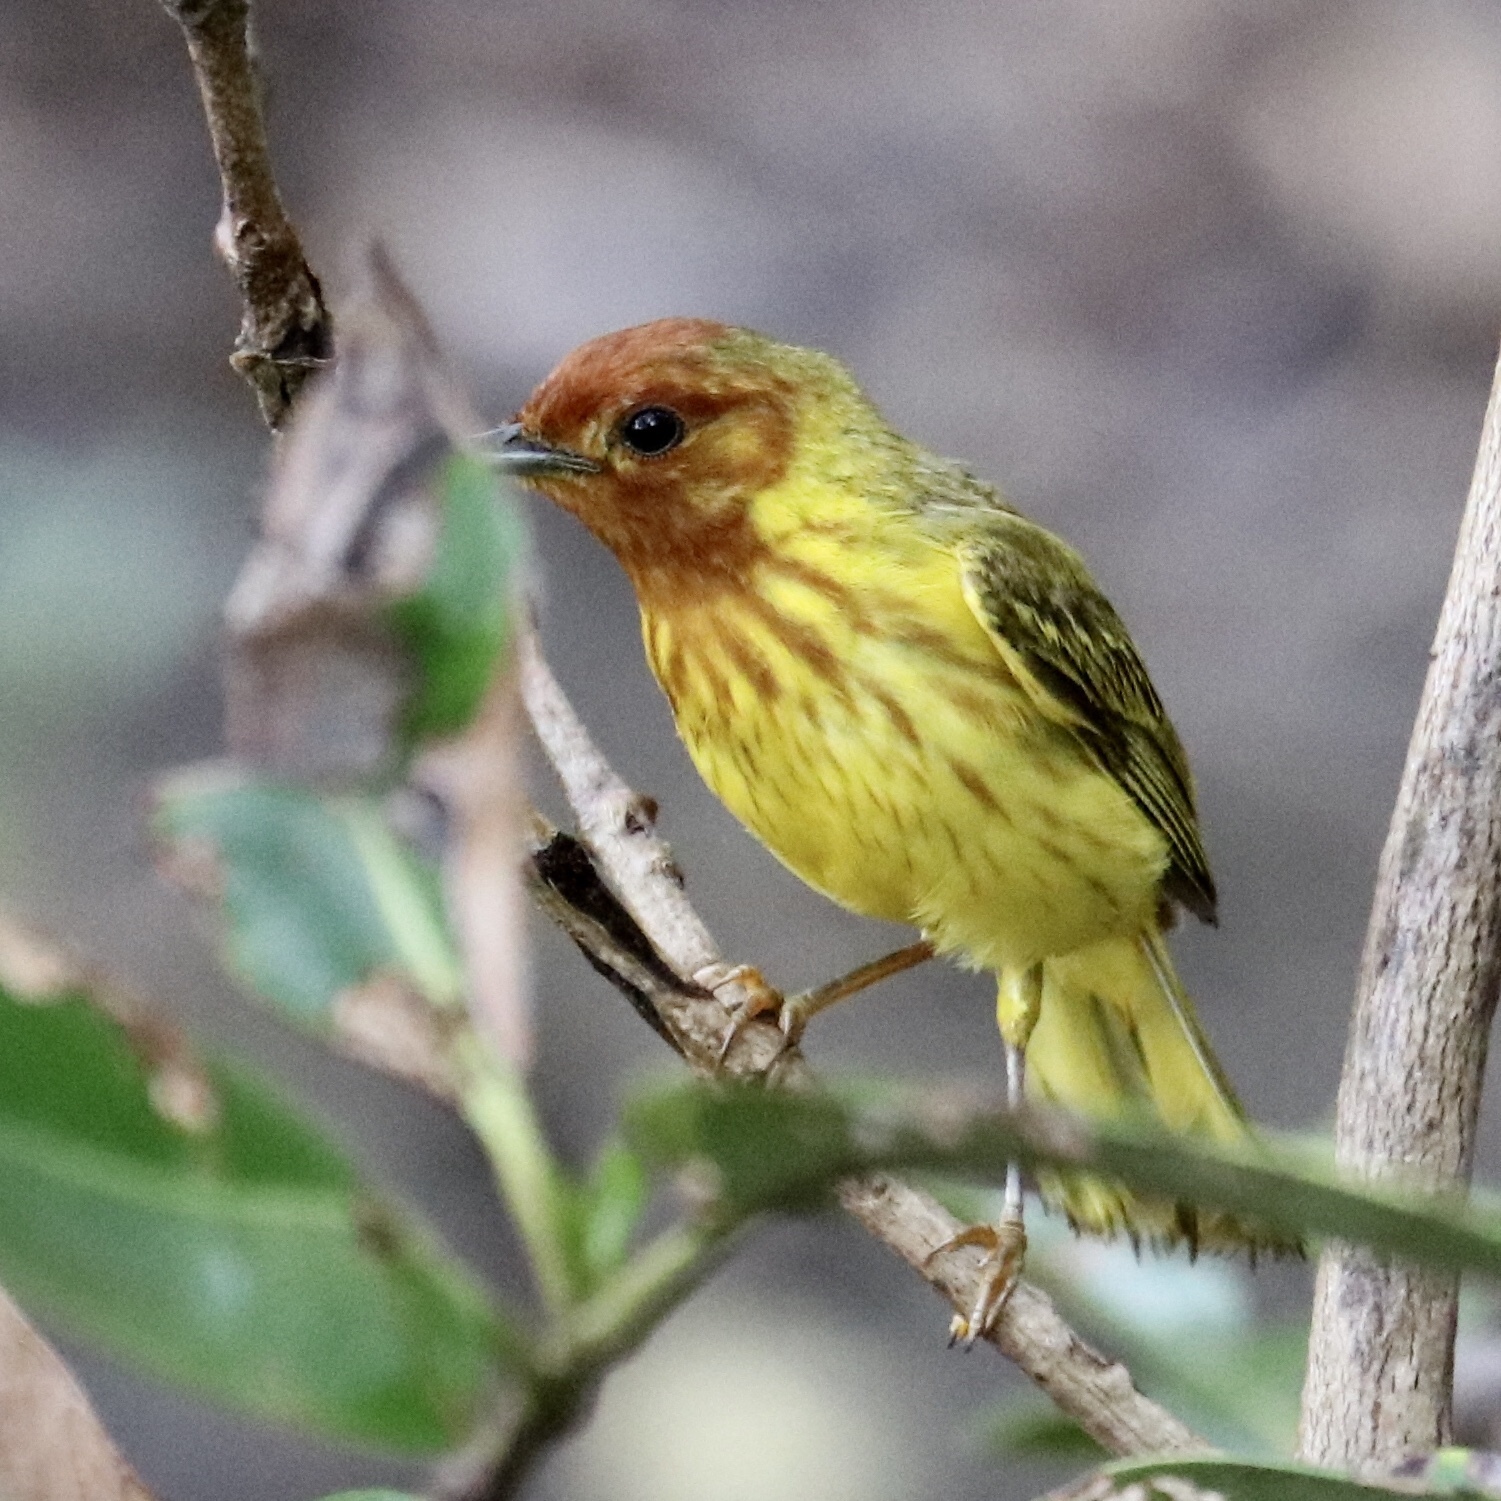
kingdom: Animalia
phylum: Chordata
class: Aves
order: Passeriformes
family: Parulidae
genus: Setophaga
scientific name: Setophaga petechia
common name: Yellow warbler
